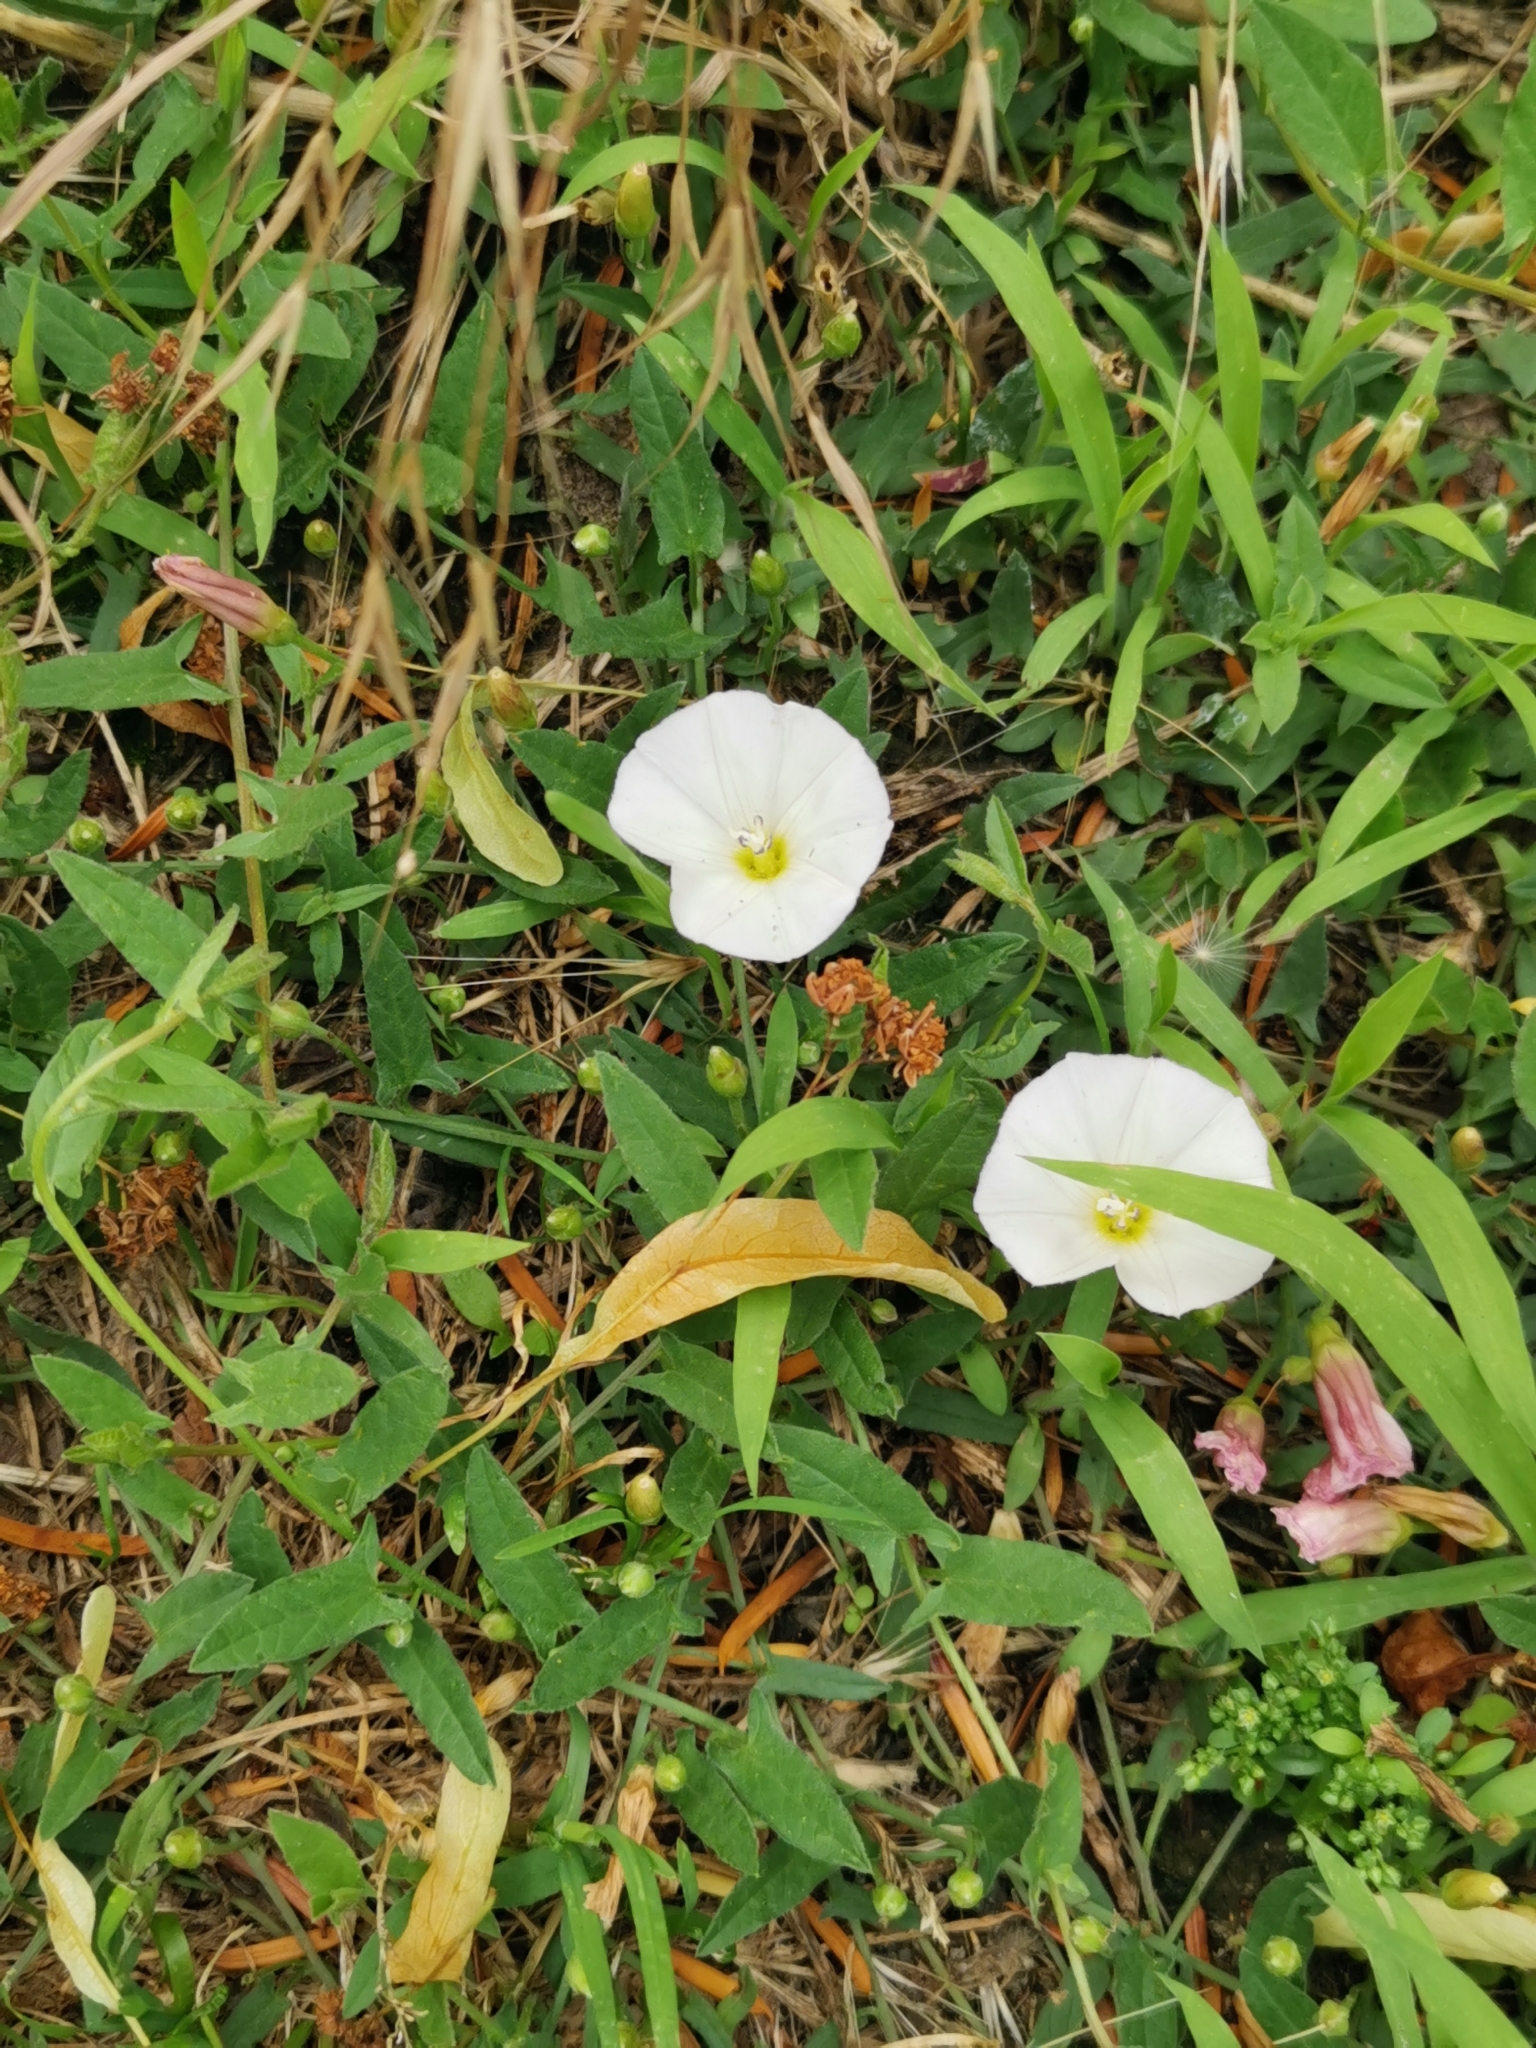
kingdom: Plantae
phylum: Tracheophyta
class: Magnoliopsida
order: Solanales
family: Convolvulaceae
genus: Convolvulus
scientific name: Convolvulus arvensis
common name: Field bindweed
